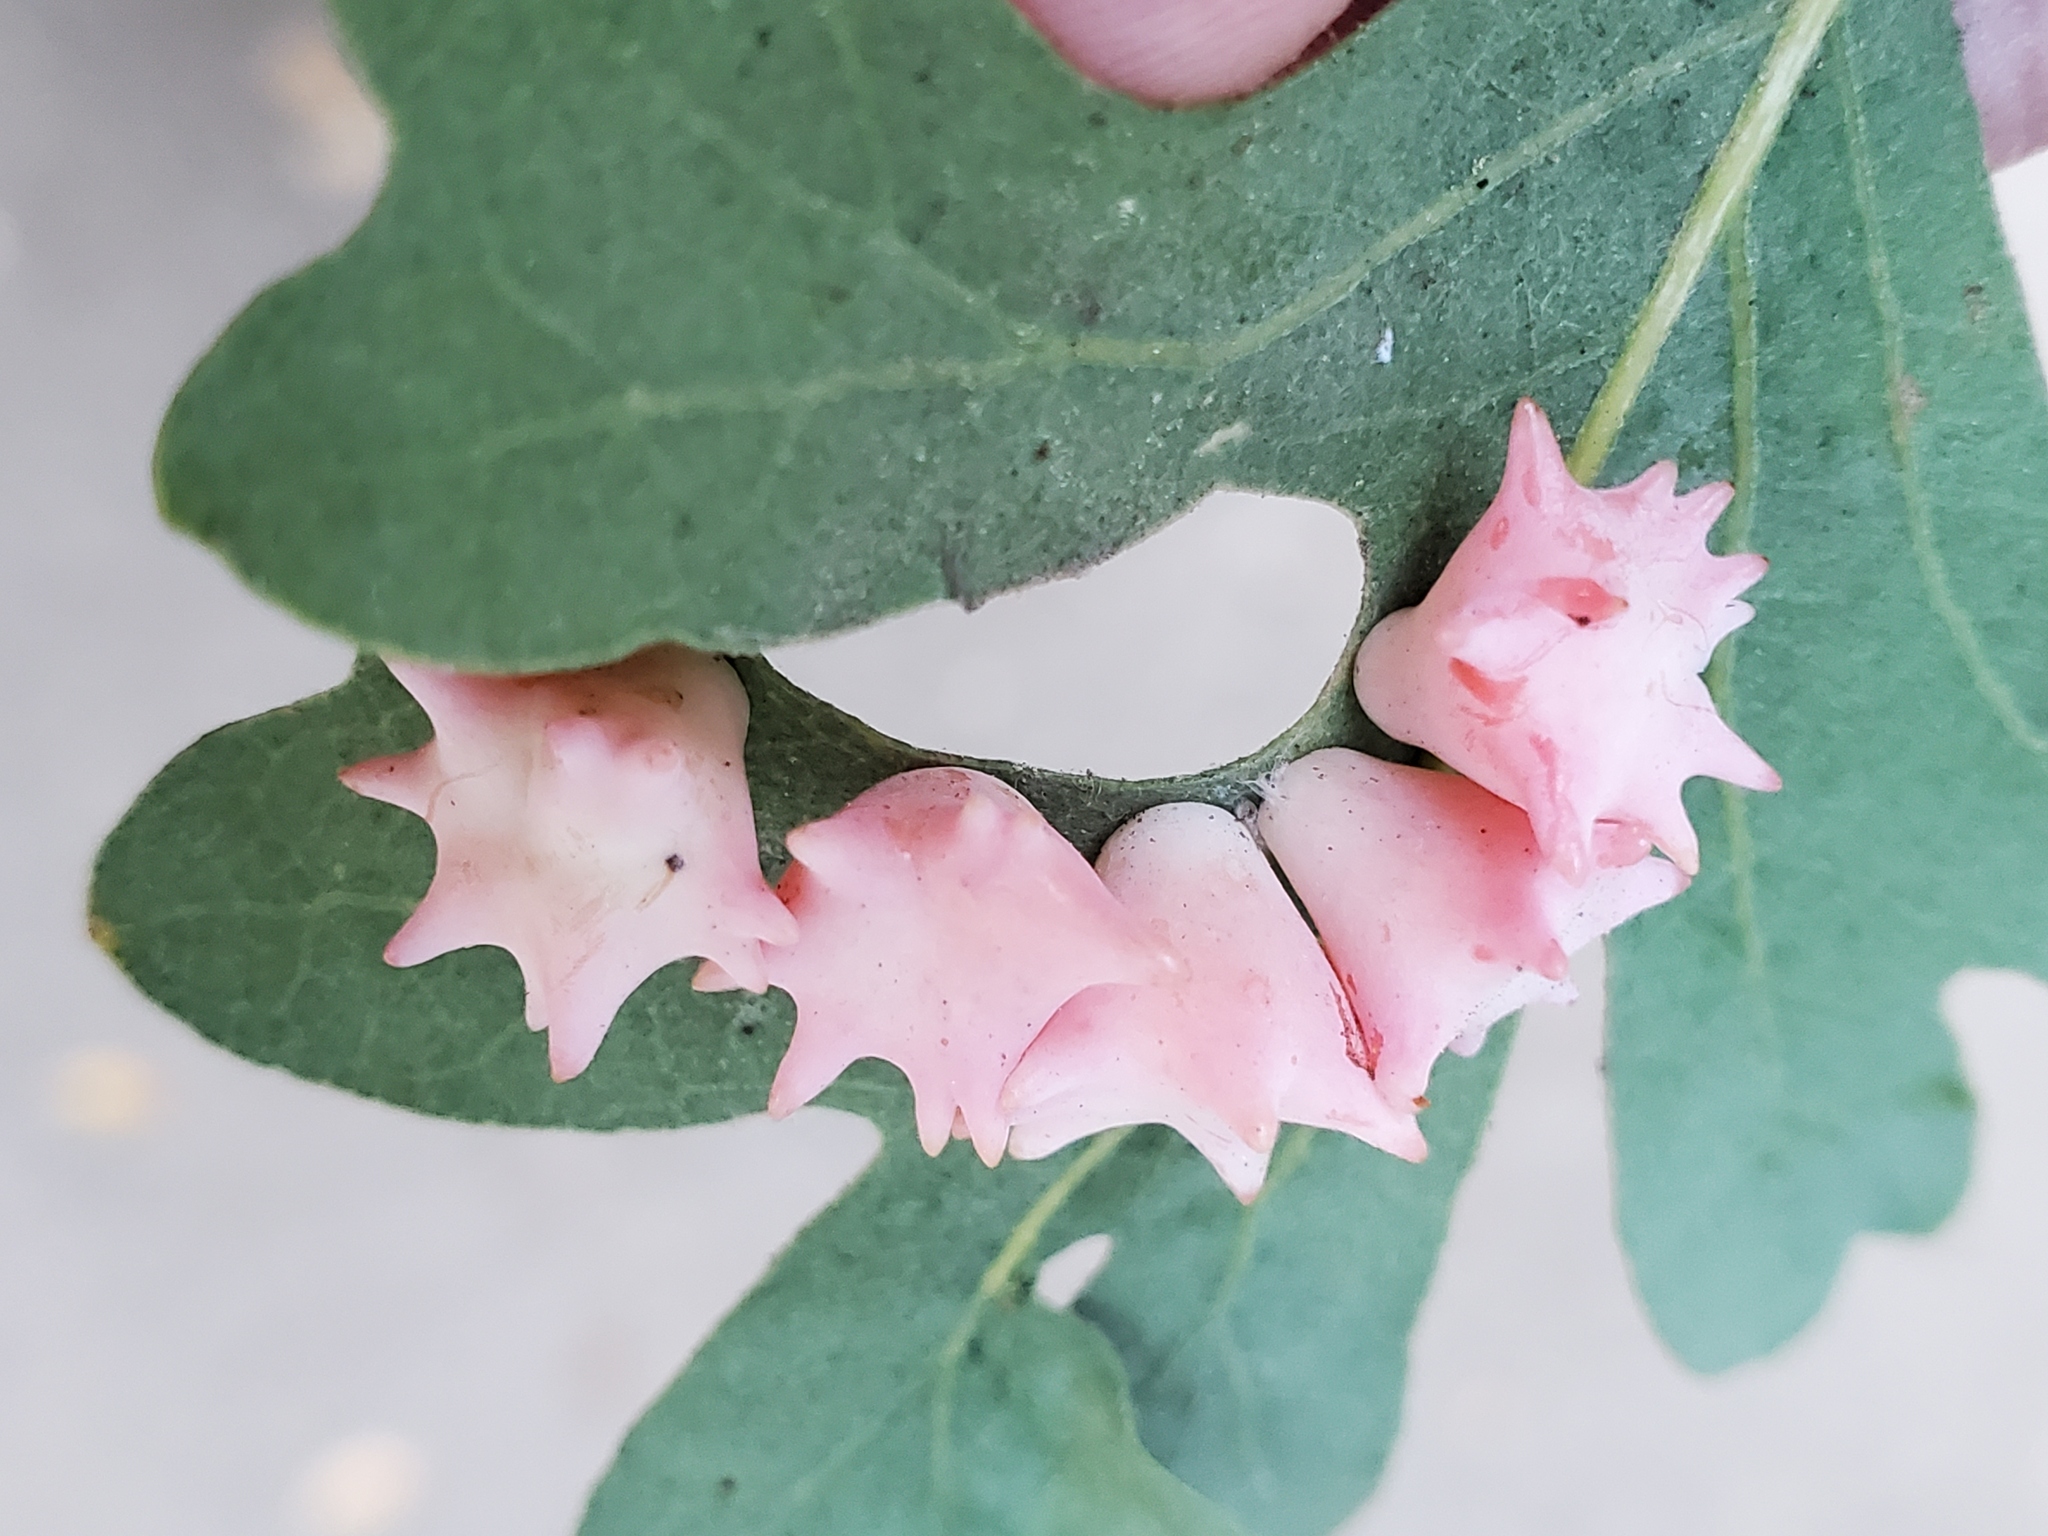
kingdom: Animalia
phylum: Arthropoda
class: Insecta
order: Hymenoptera
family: Cynipidae
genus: Cynips
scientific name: Cynips douglasi
